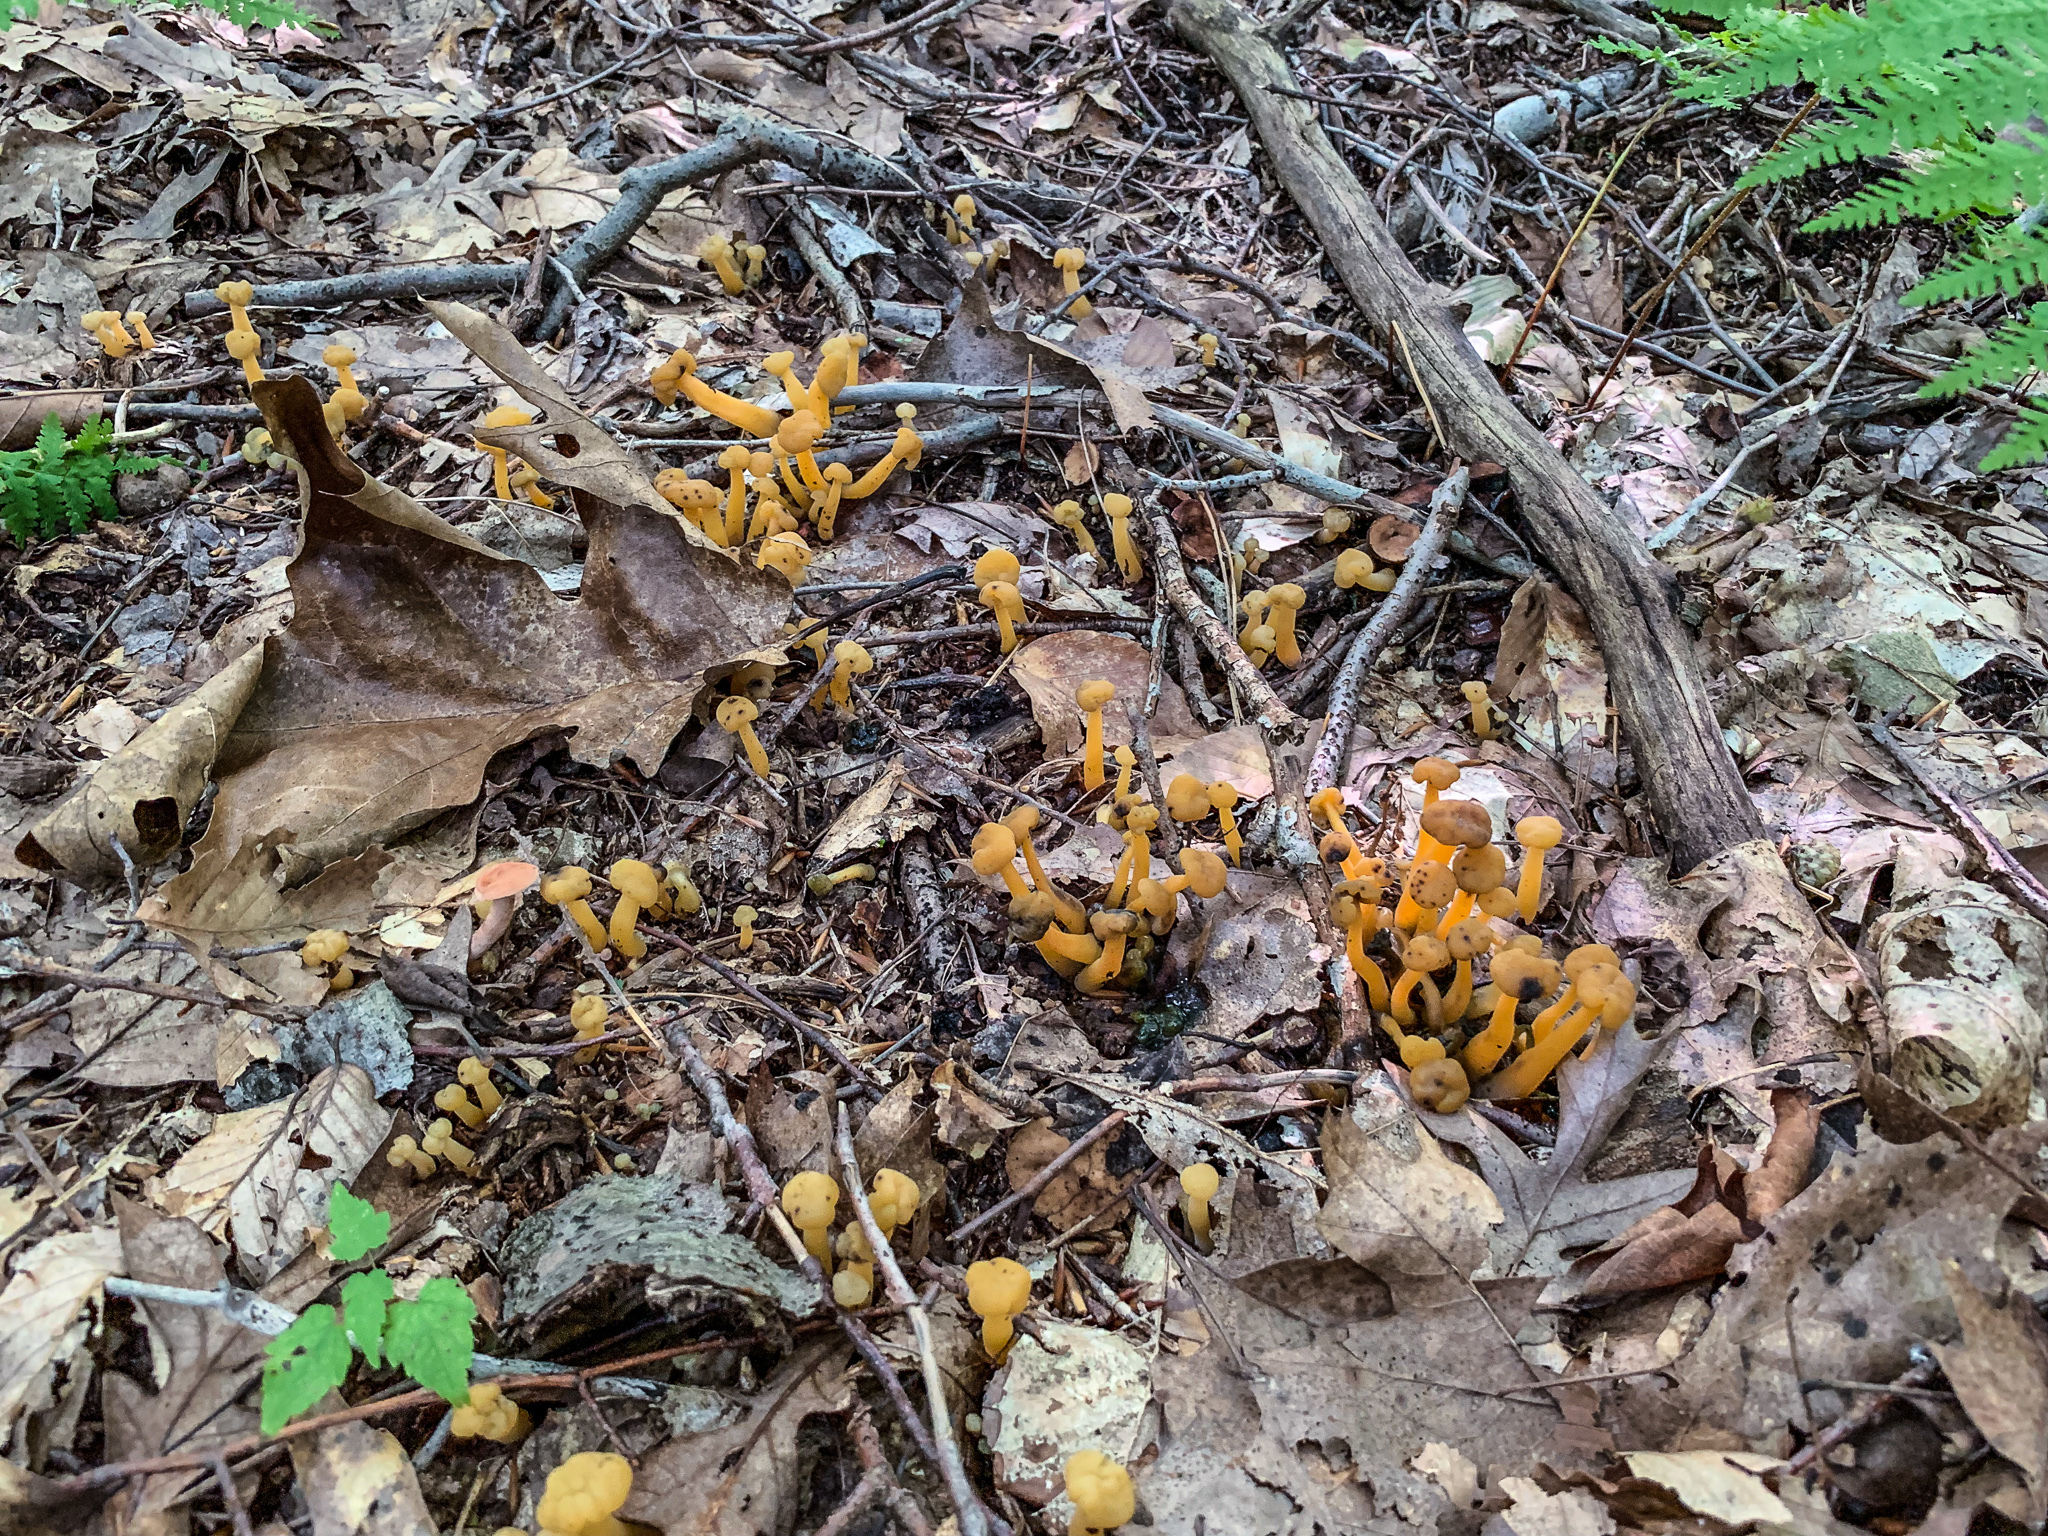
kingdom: Fungi
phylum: Ascomycota
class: Leotiomycetes
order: Leotiales
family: Leotiaceae
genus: Leotia
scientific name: Leotia lubrica
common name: Jellybaby
